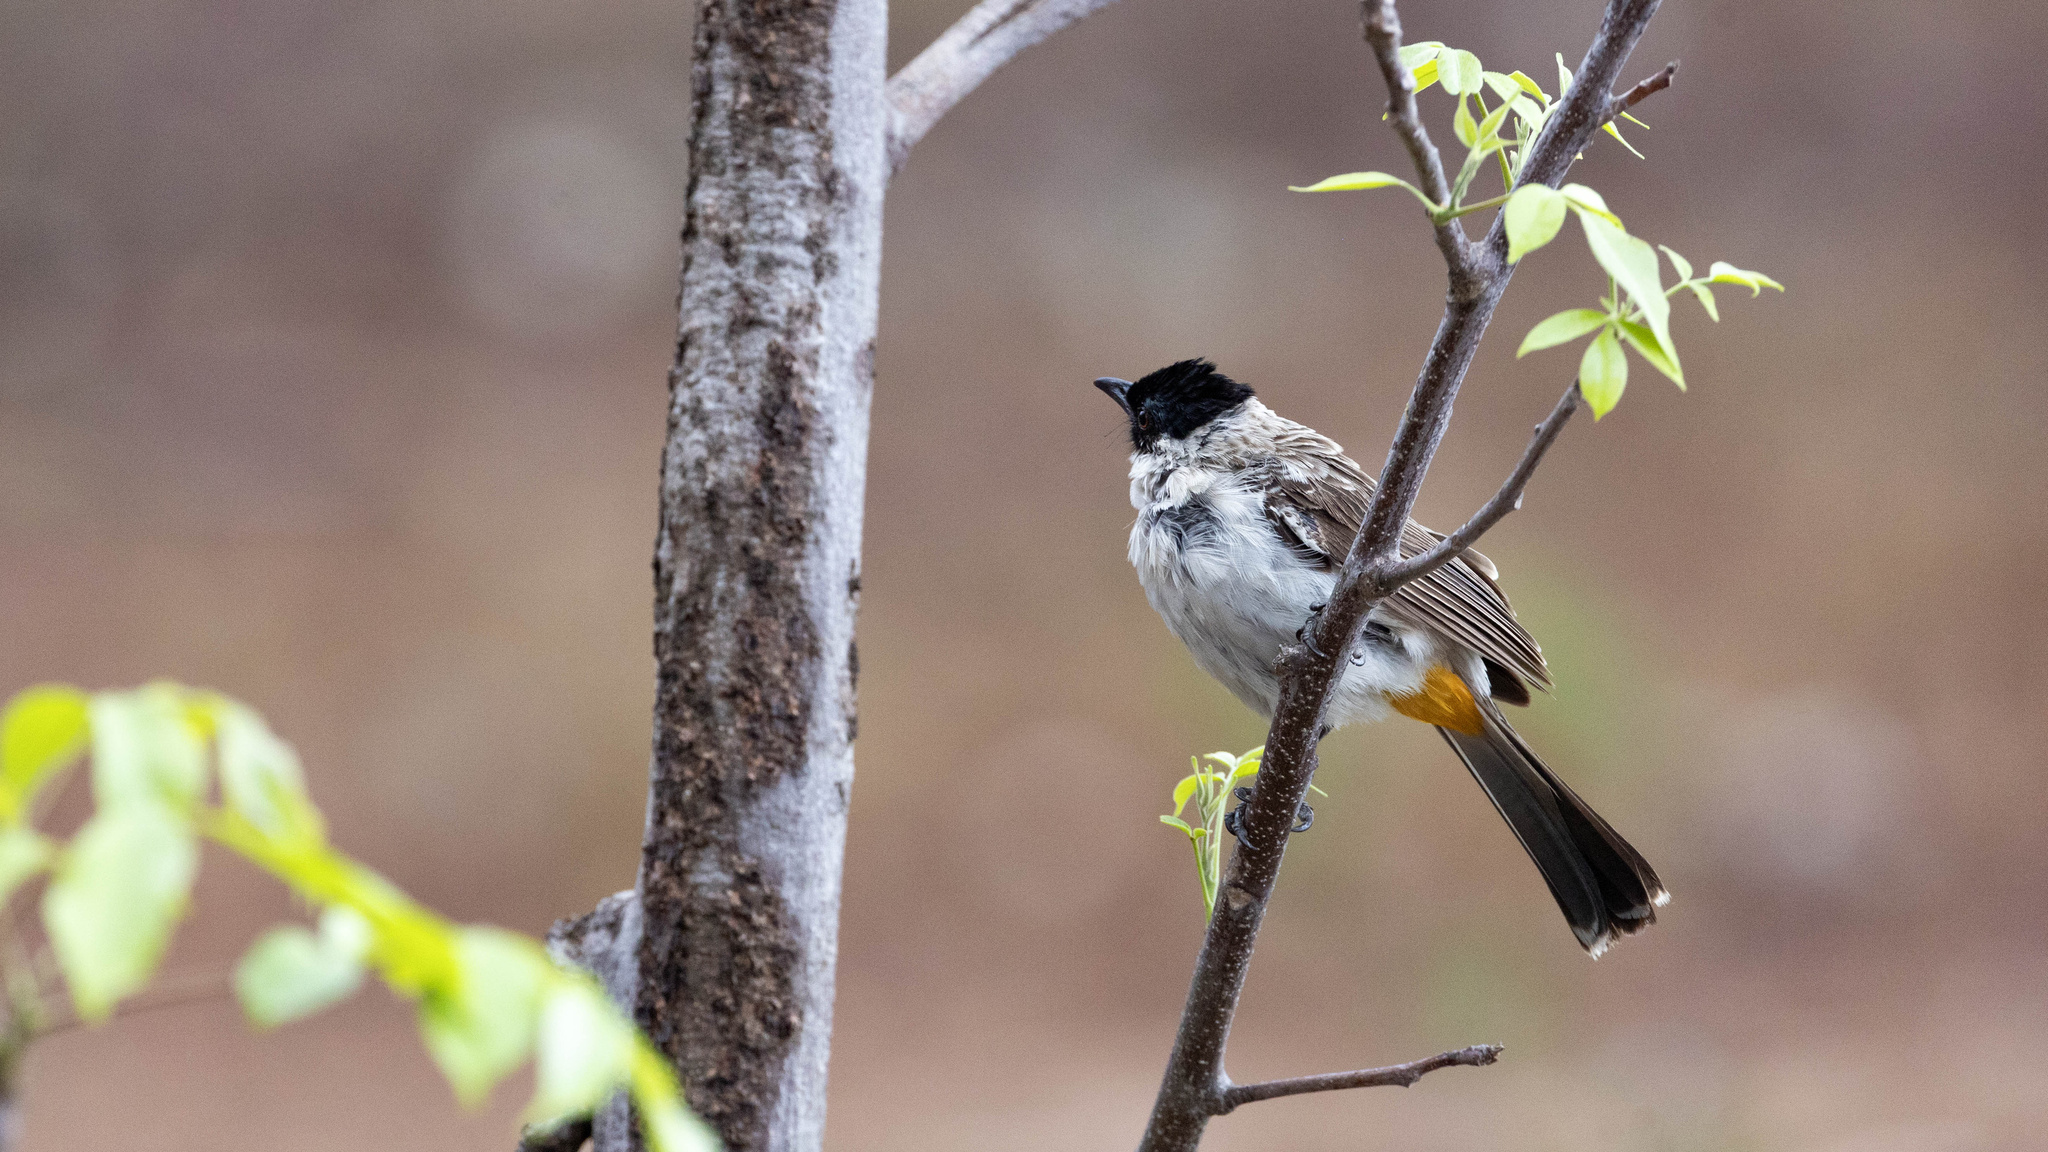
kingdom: Animalia
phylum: Chordata
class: Aves
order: Passeriformes
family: Pycnonotidae
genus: Pycnonotus
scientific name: Pycnonotus aurigaster
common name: Sooty-headed bulbul
